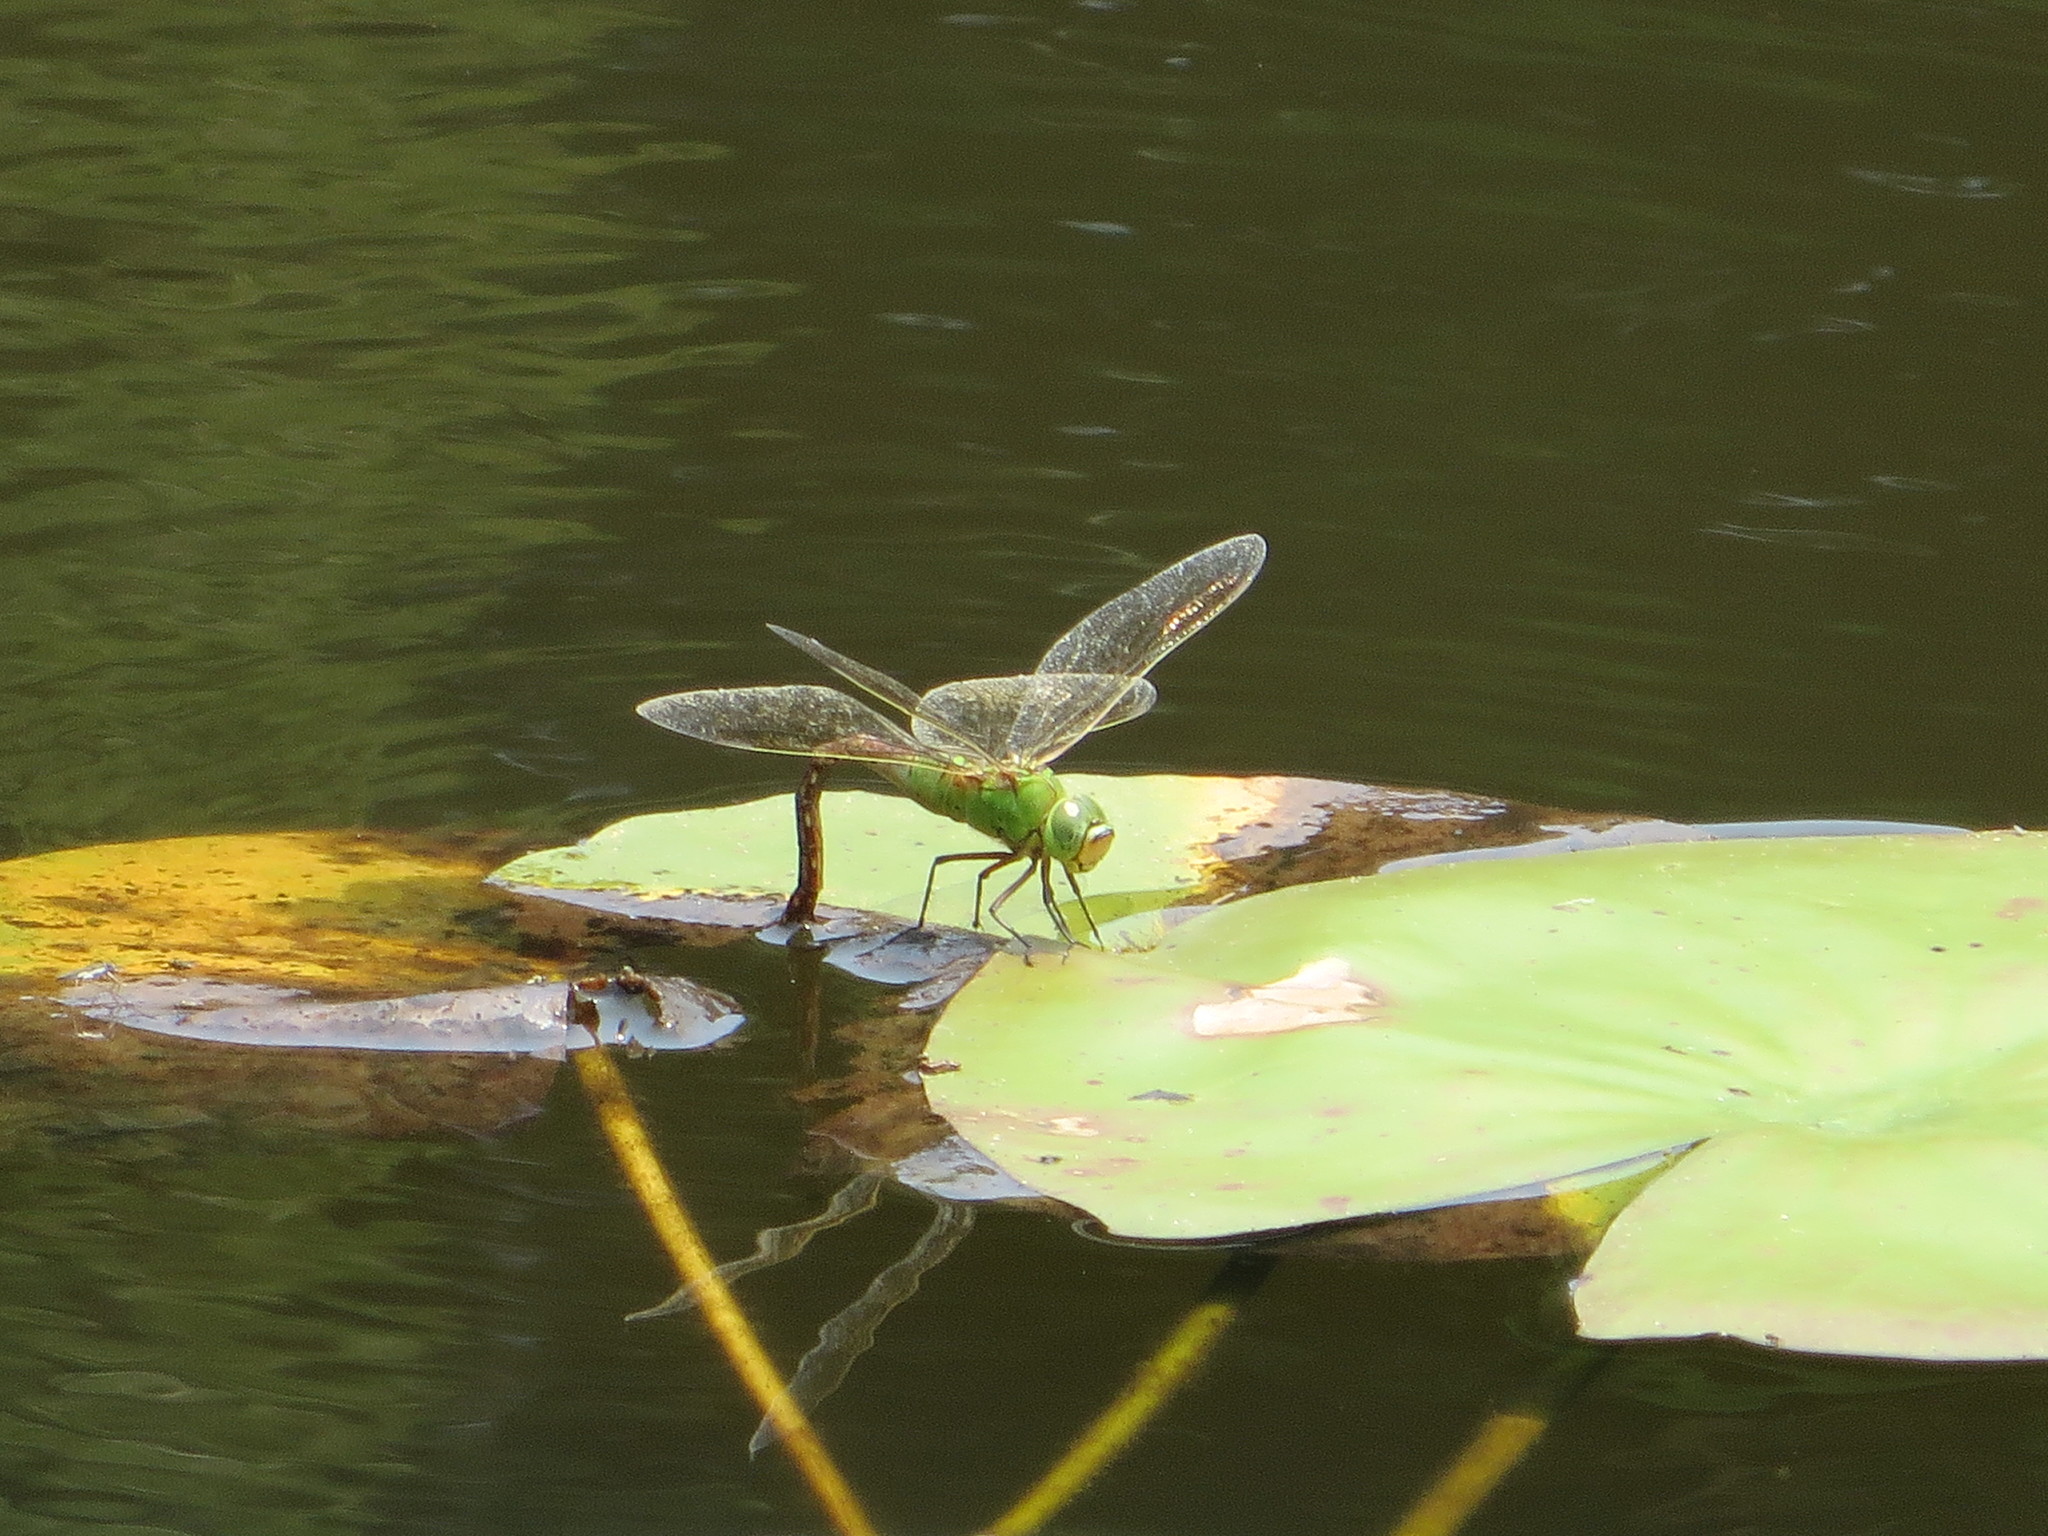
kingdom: Animalia
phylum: Arthropoda
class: Insecta
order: Odonata
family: Aeshnidae
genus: Anax
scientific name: Anax julius
